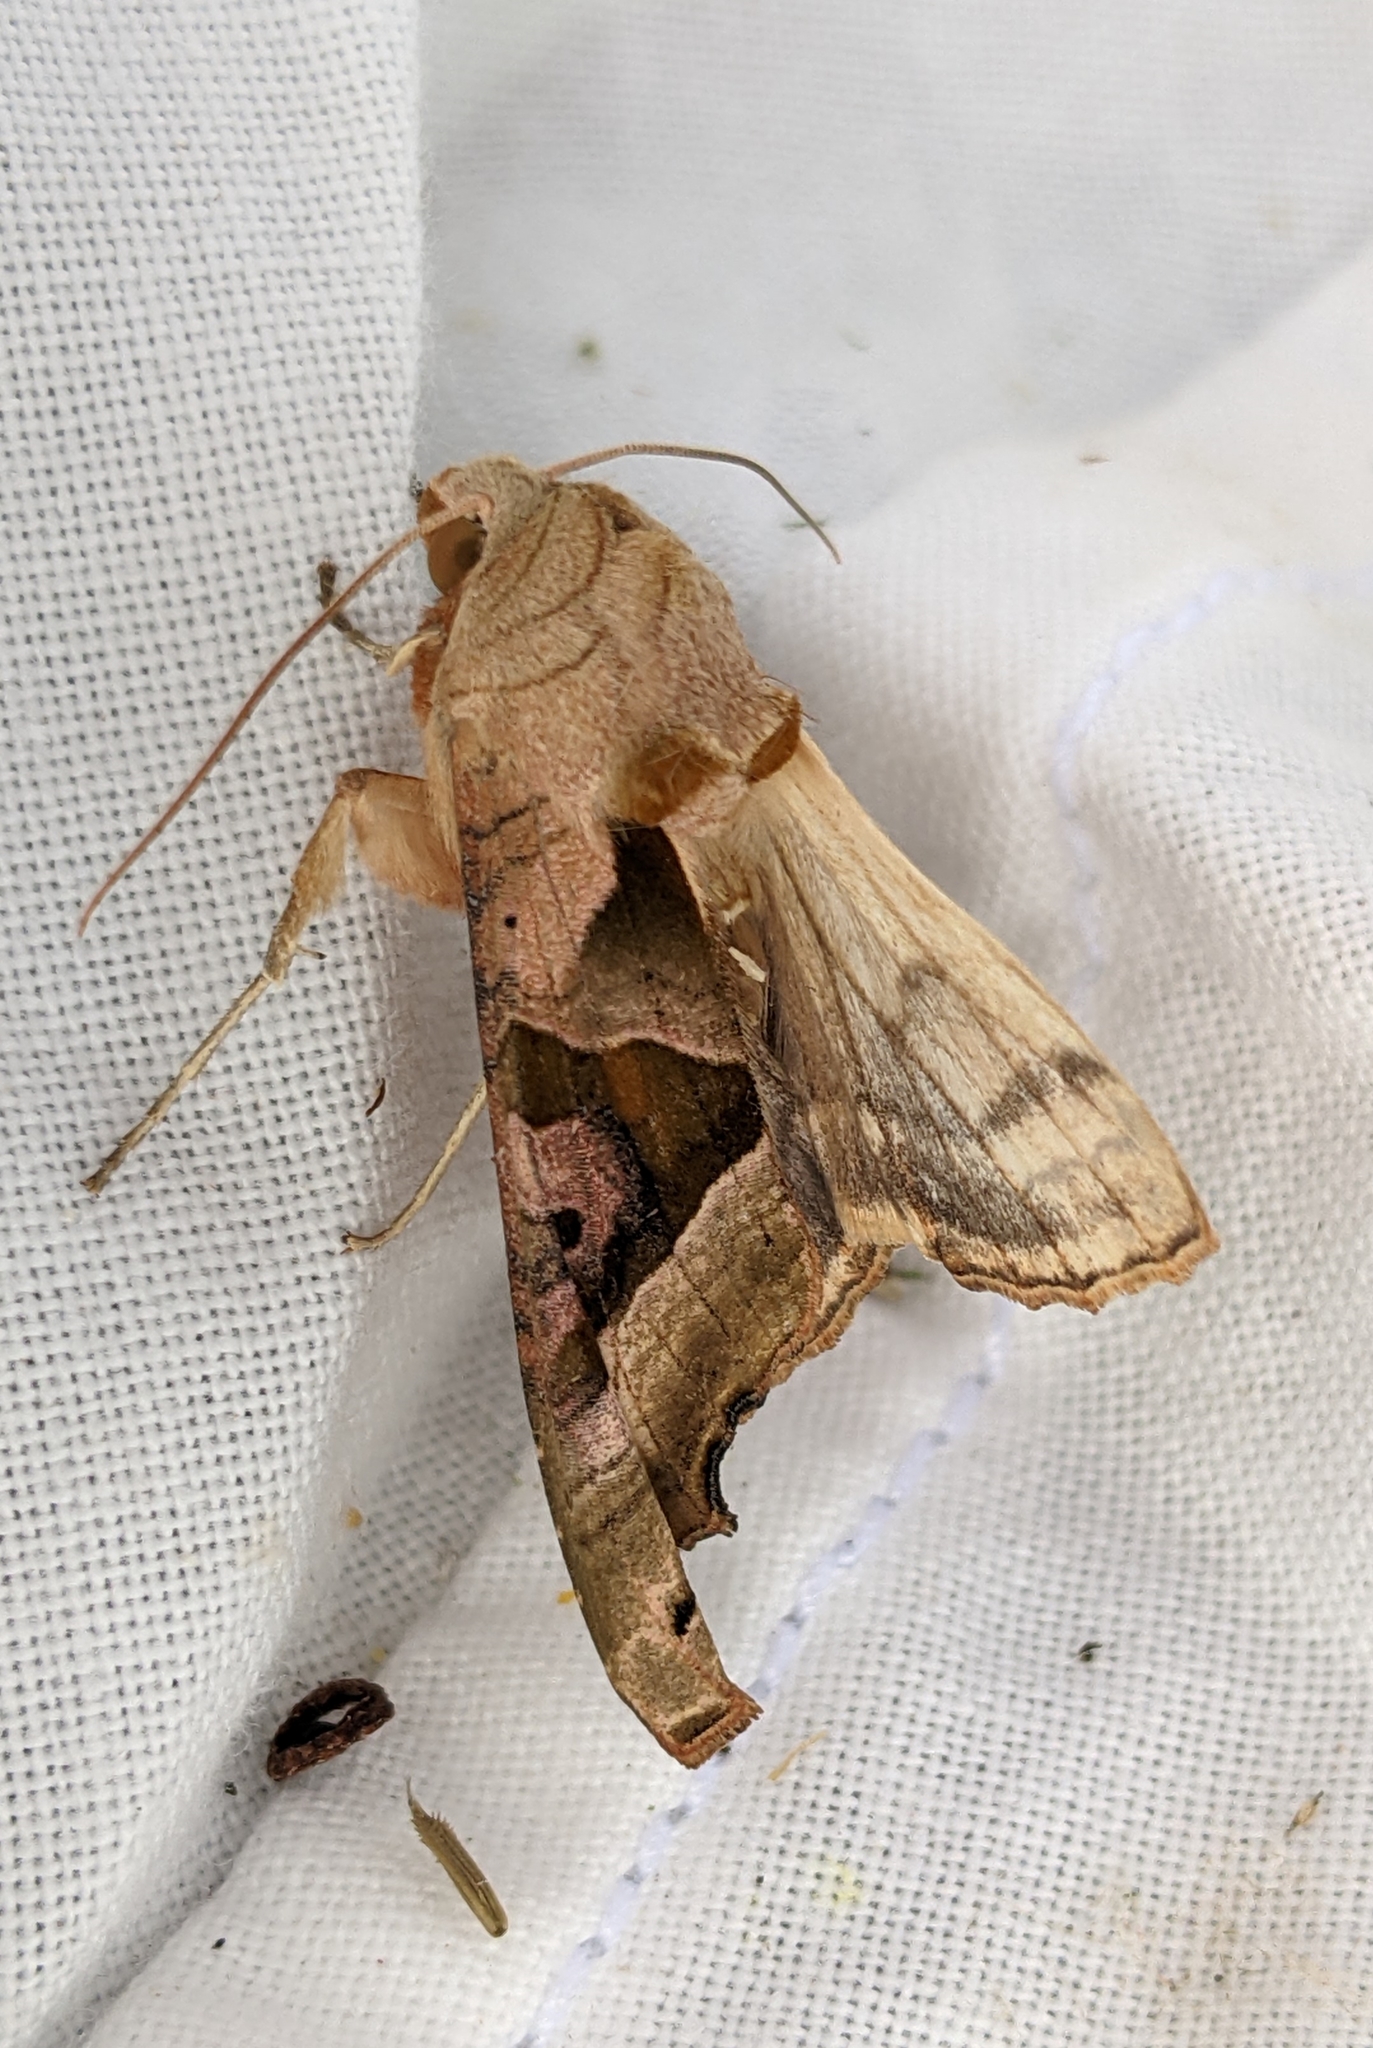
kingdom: Animalia
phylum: Arthropoda
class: Insecta
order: Lepidoptera
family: Noctuidae
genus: Phlogophora
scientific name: Phlogophora meticulosa
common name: Angle shades
